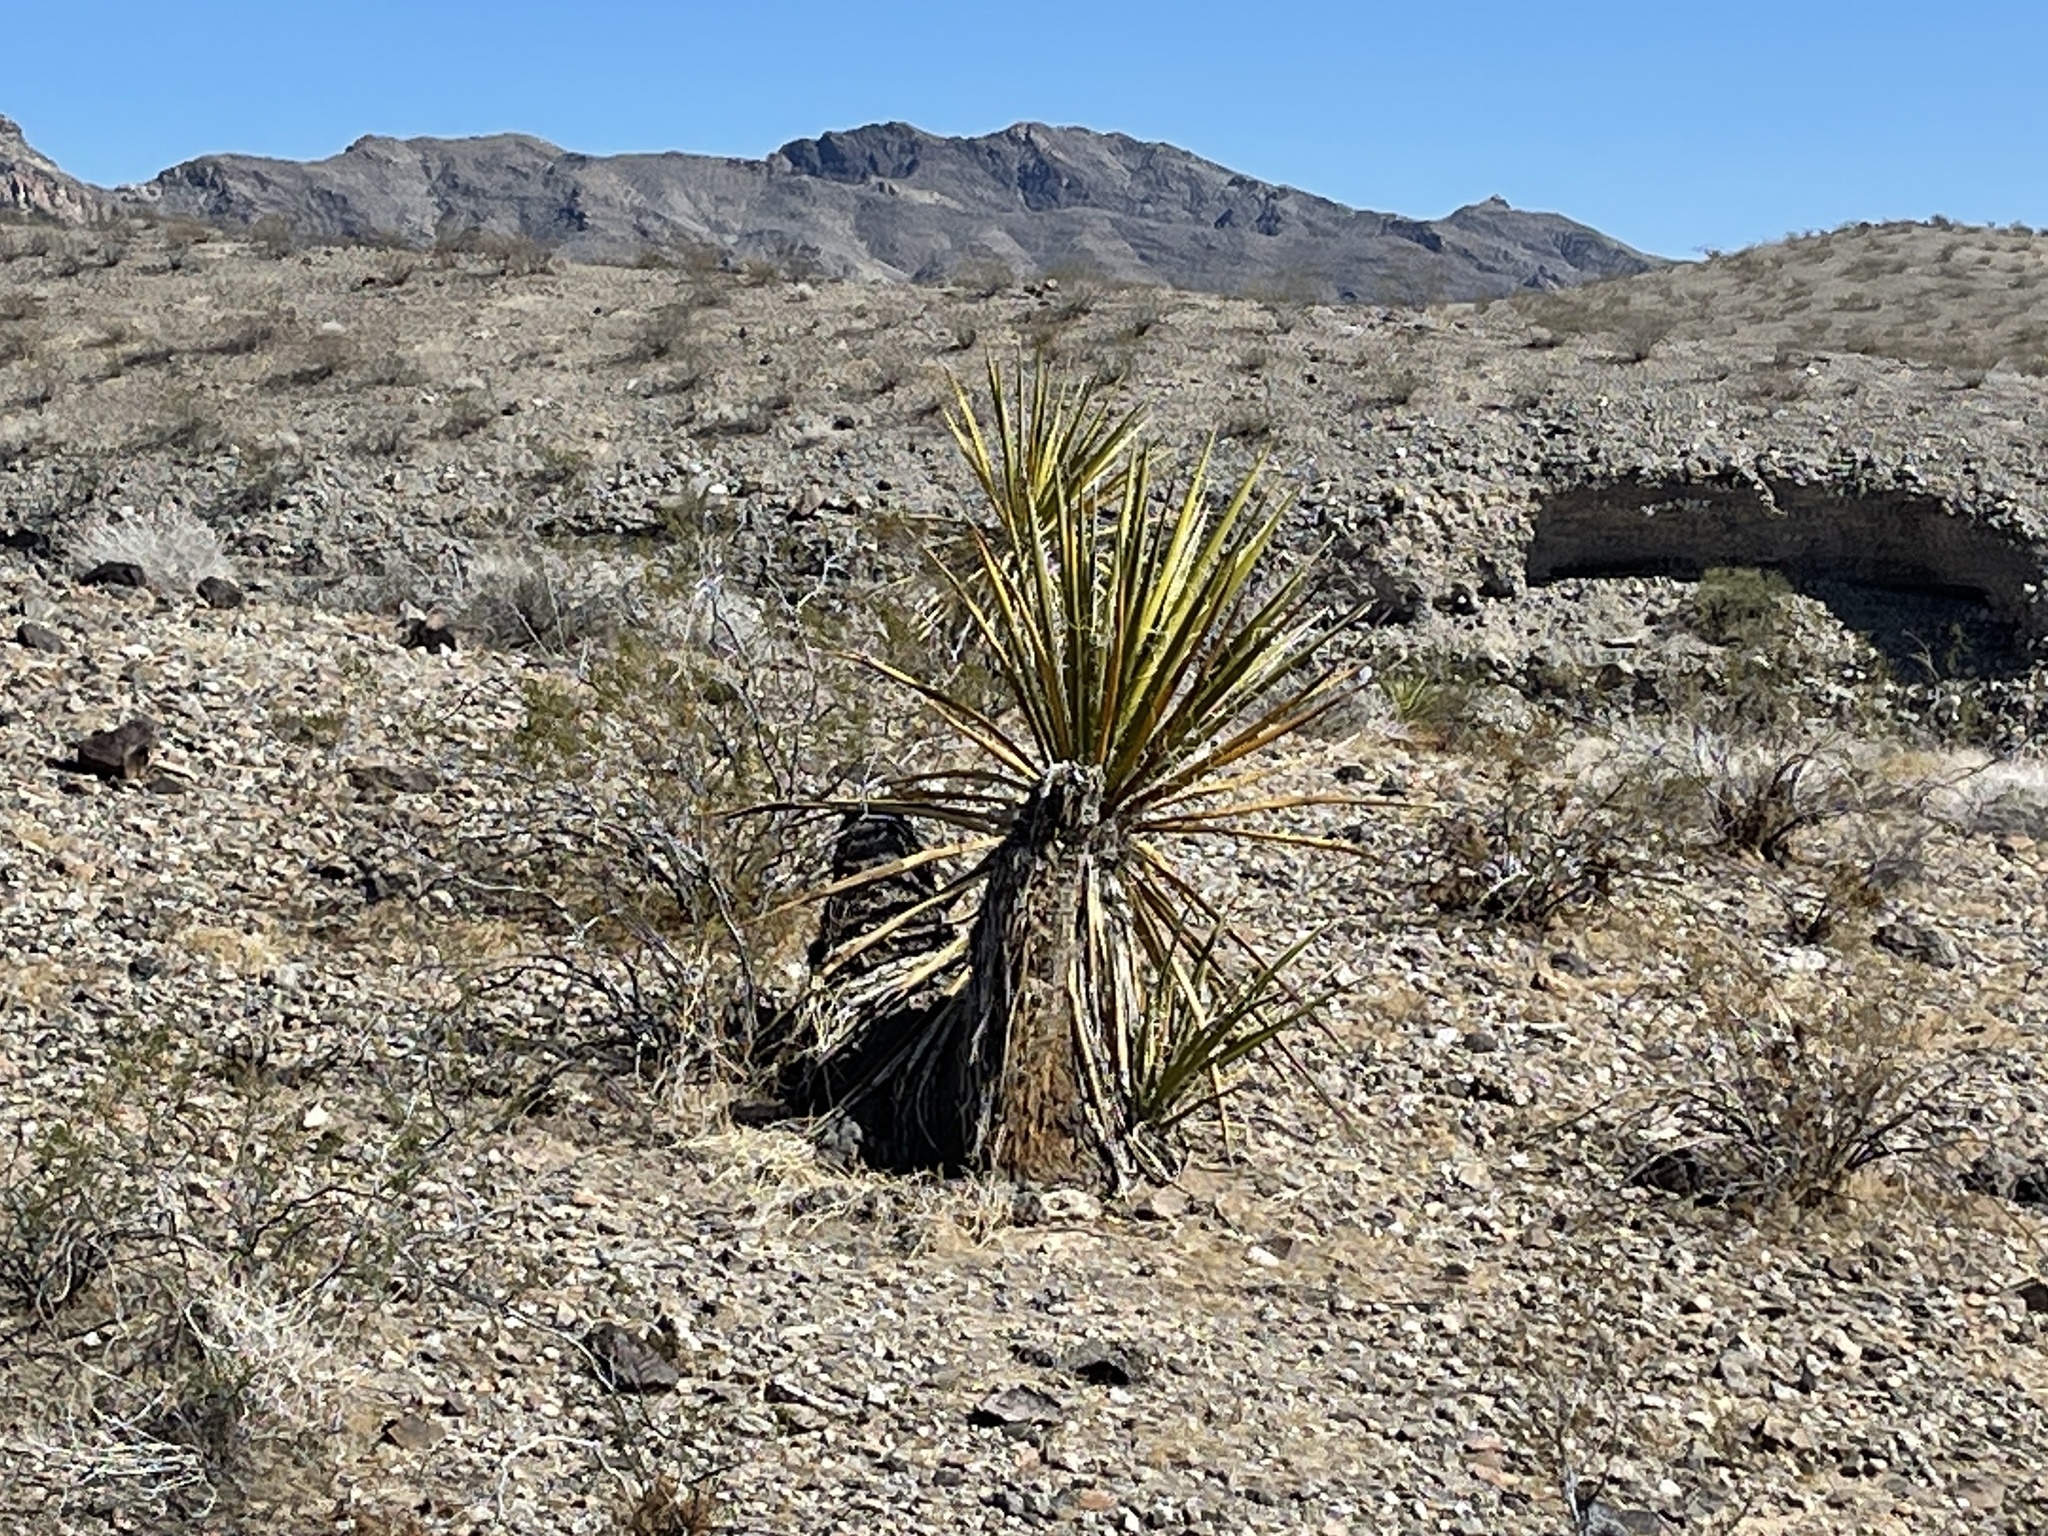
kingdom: Plantae
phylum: Tracheophyta
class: Liliopsida
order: Asparagales
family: Asparagaceae
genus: Yucca
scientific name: Yucca schidigera
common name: Mojave yucca
